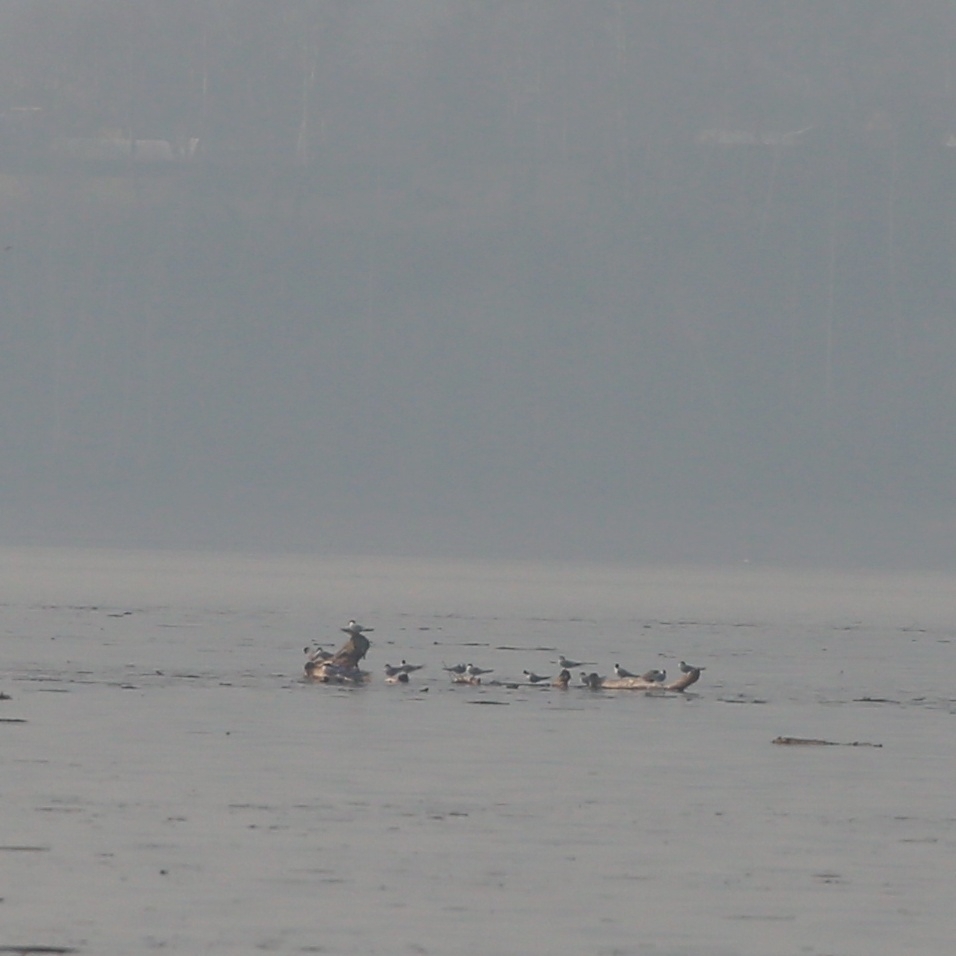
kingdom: Animalia
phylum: Chordata
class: Aves
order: Charadriiformes
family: Laridae
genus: Sterna
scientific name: Sterna hirundo
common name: Common tern
